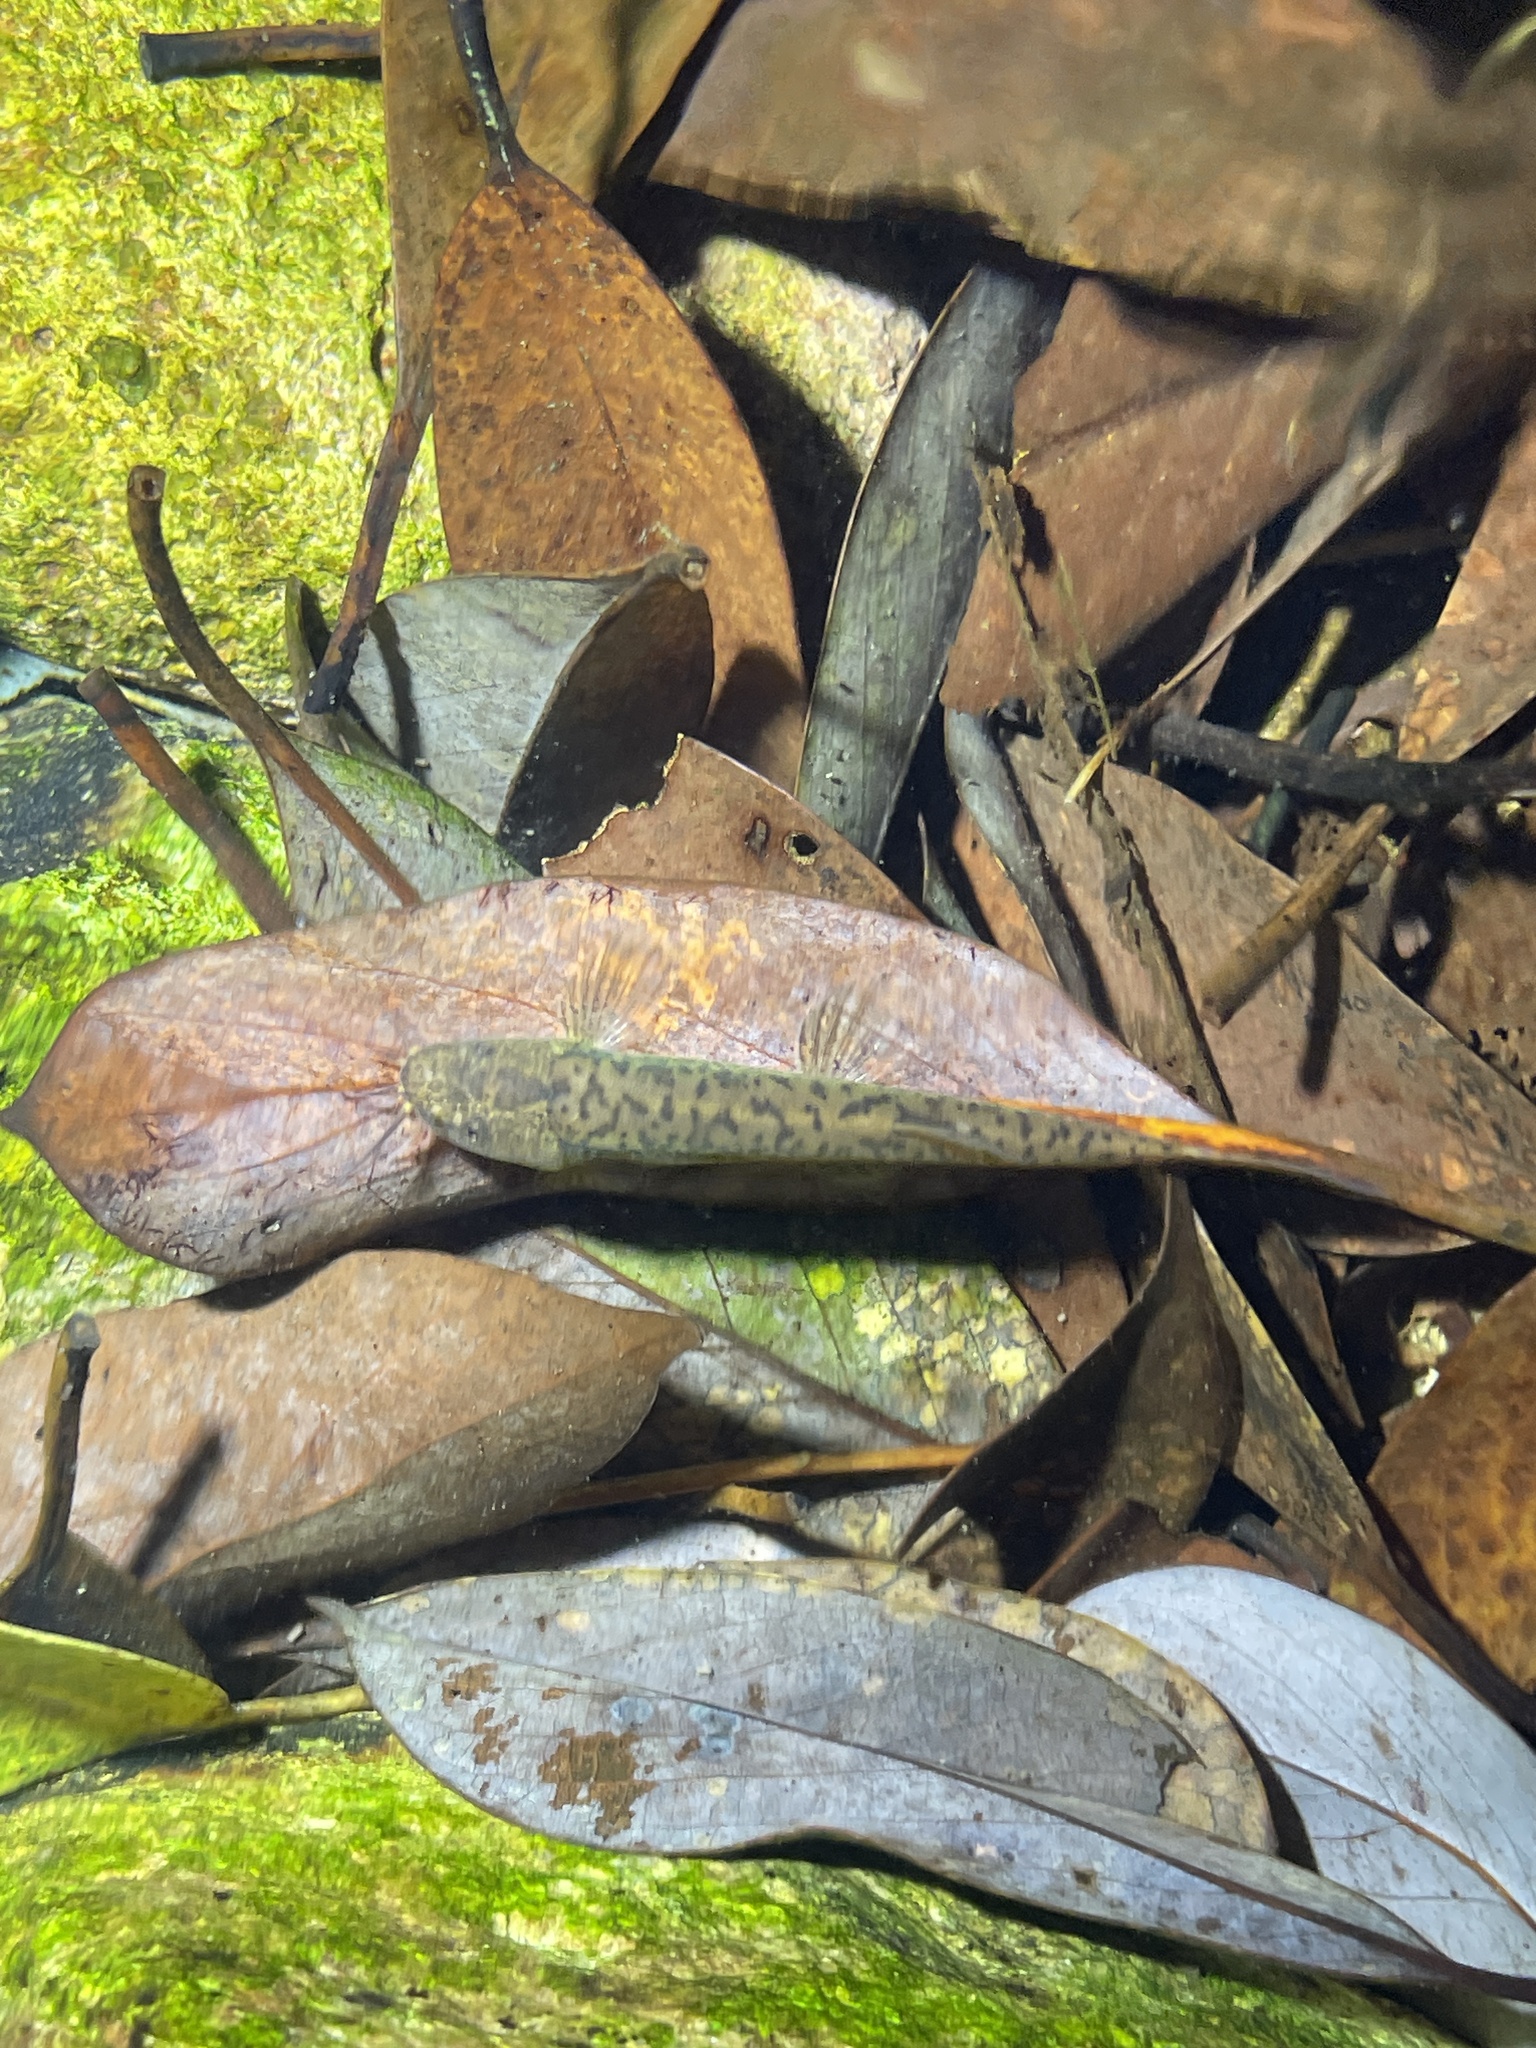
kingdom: Animalia
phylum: Chordata
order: Cypriniformes
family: Nemacheilidae
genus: Oreonectes
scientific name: Oreonectes platycephalus
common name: Flat-headed loach
